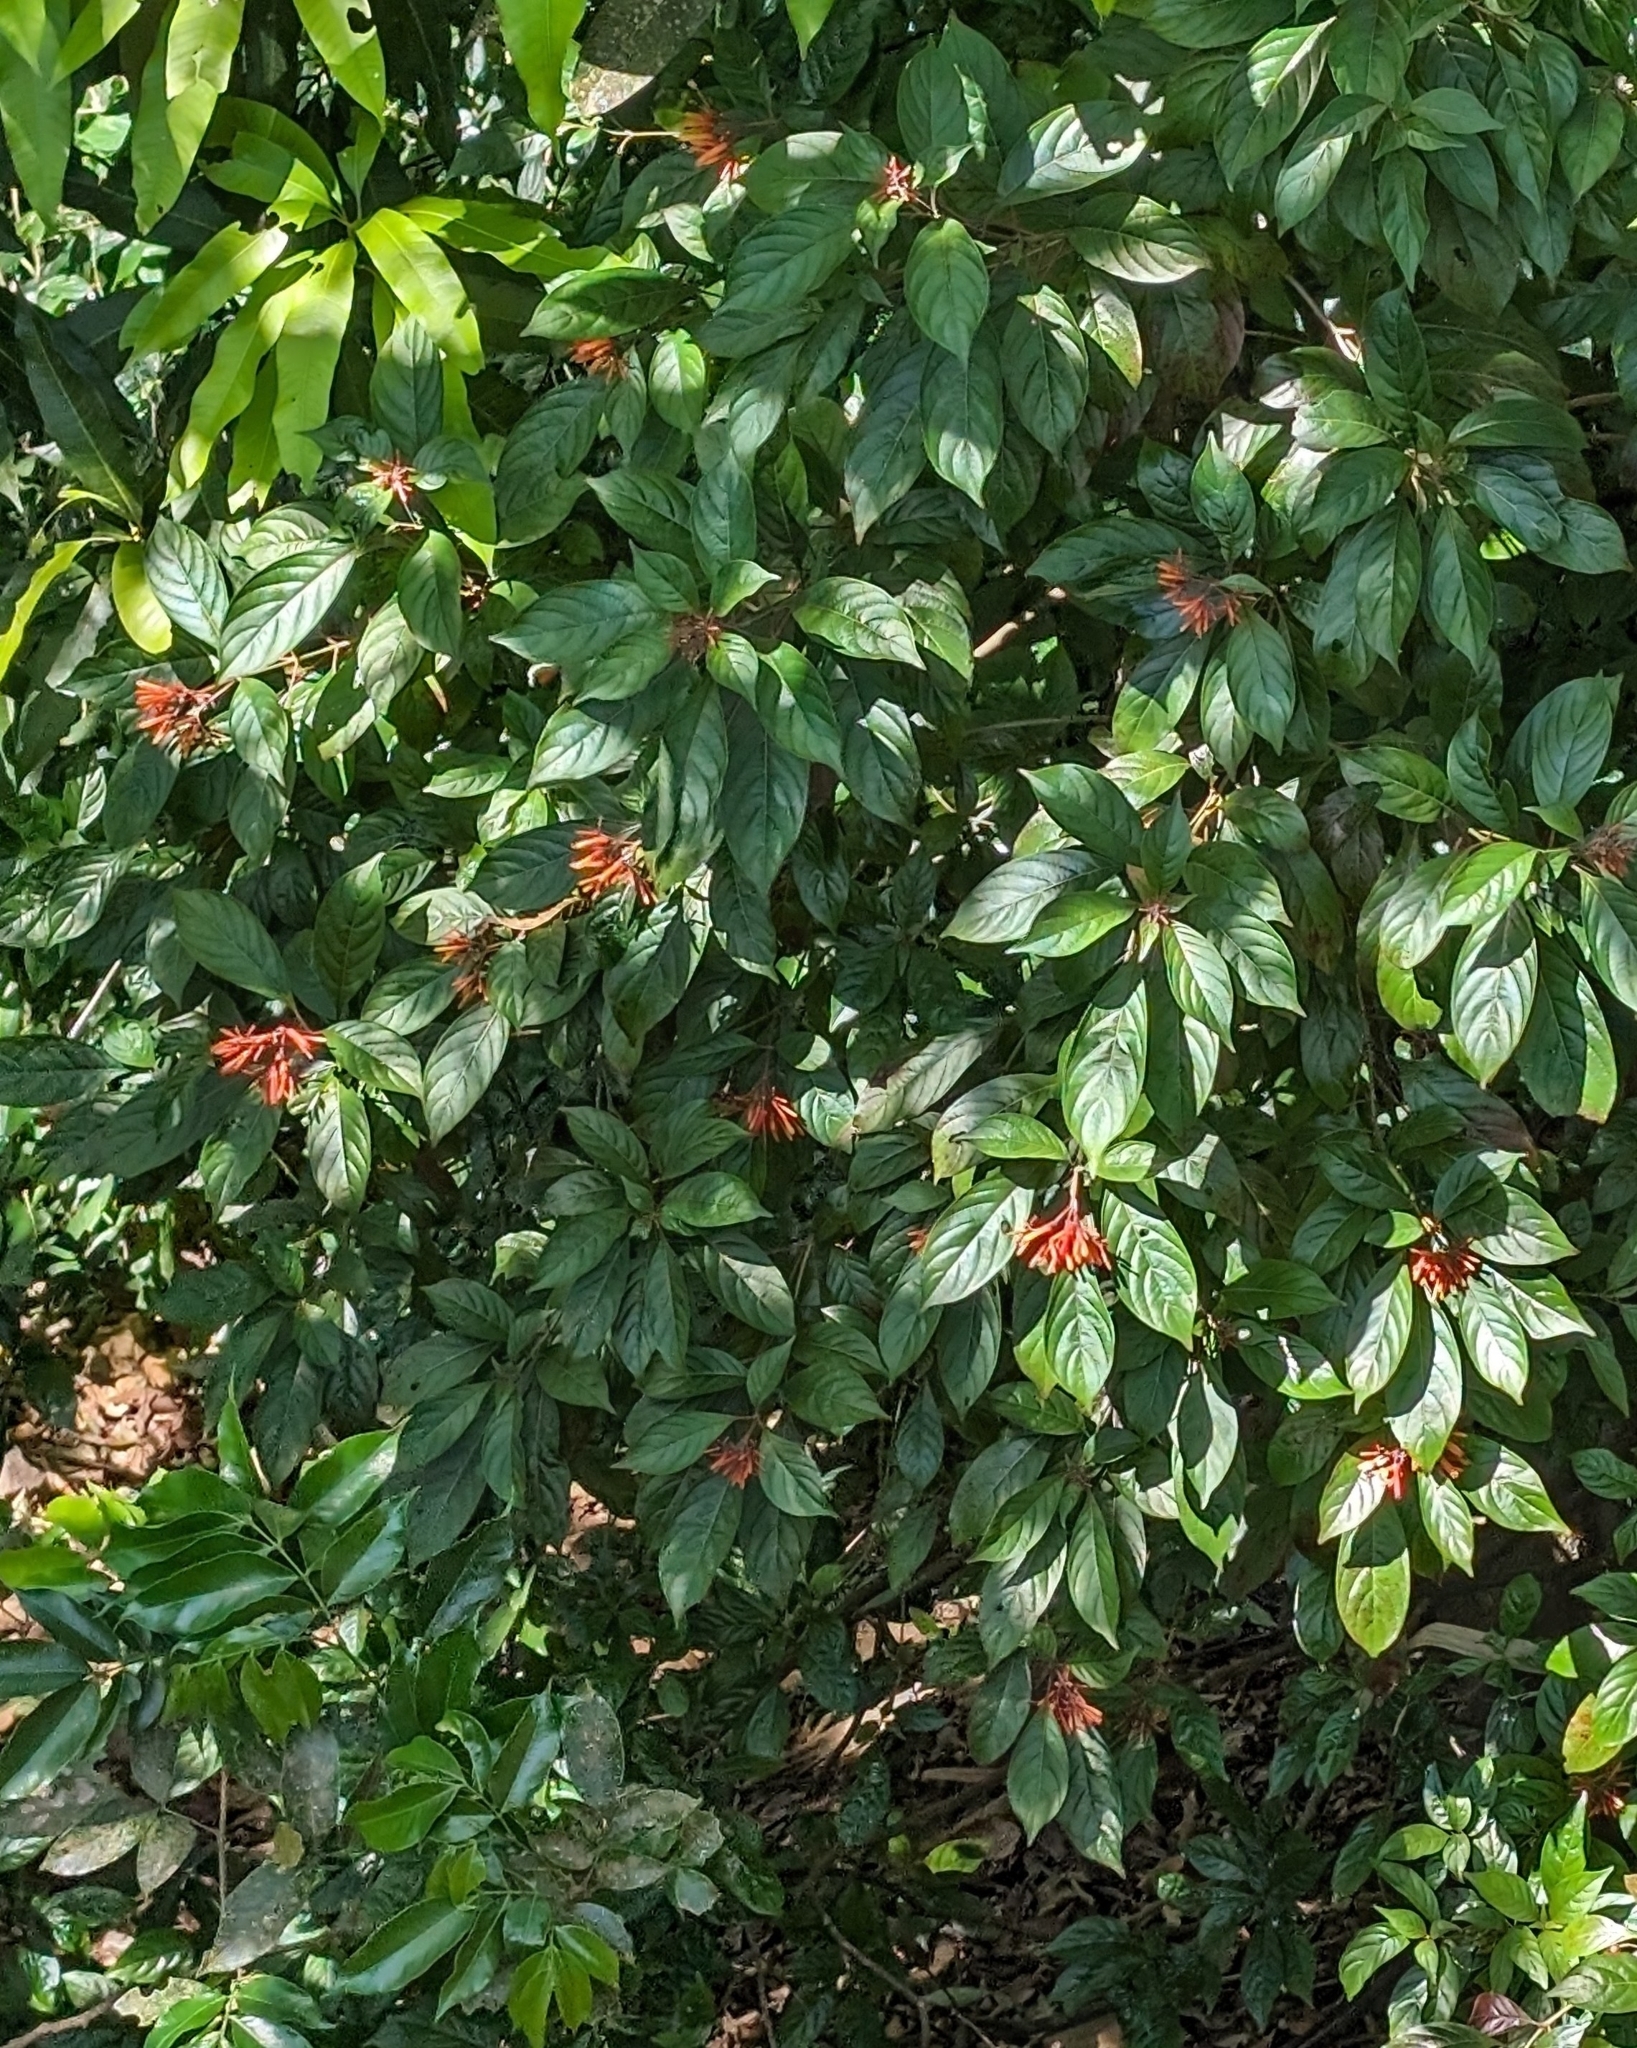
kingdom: Plantae
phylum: Tracheophyta
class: Magnoliopsida
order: Gentianales
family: Rubiaceae
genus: Hamelia
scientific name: Hamelia patens
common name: Redhead
